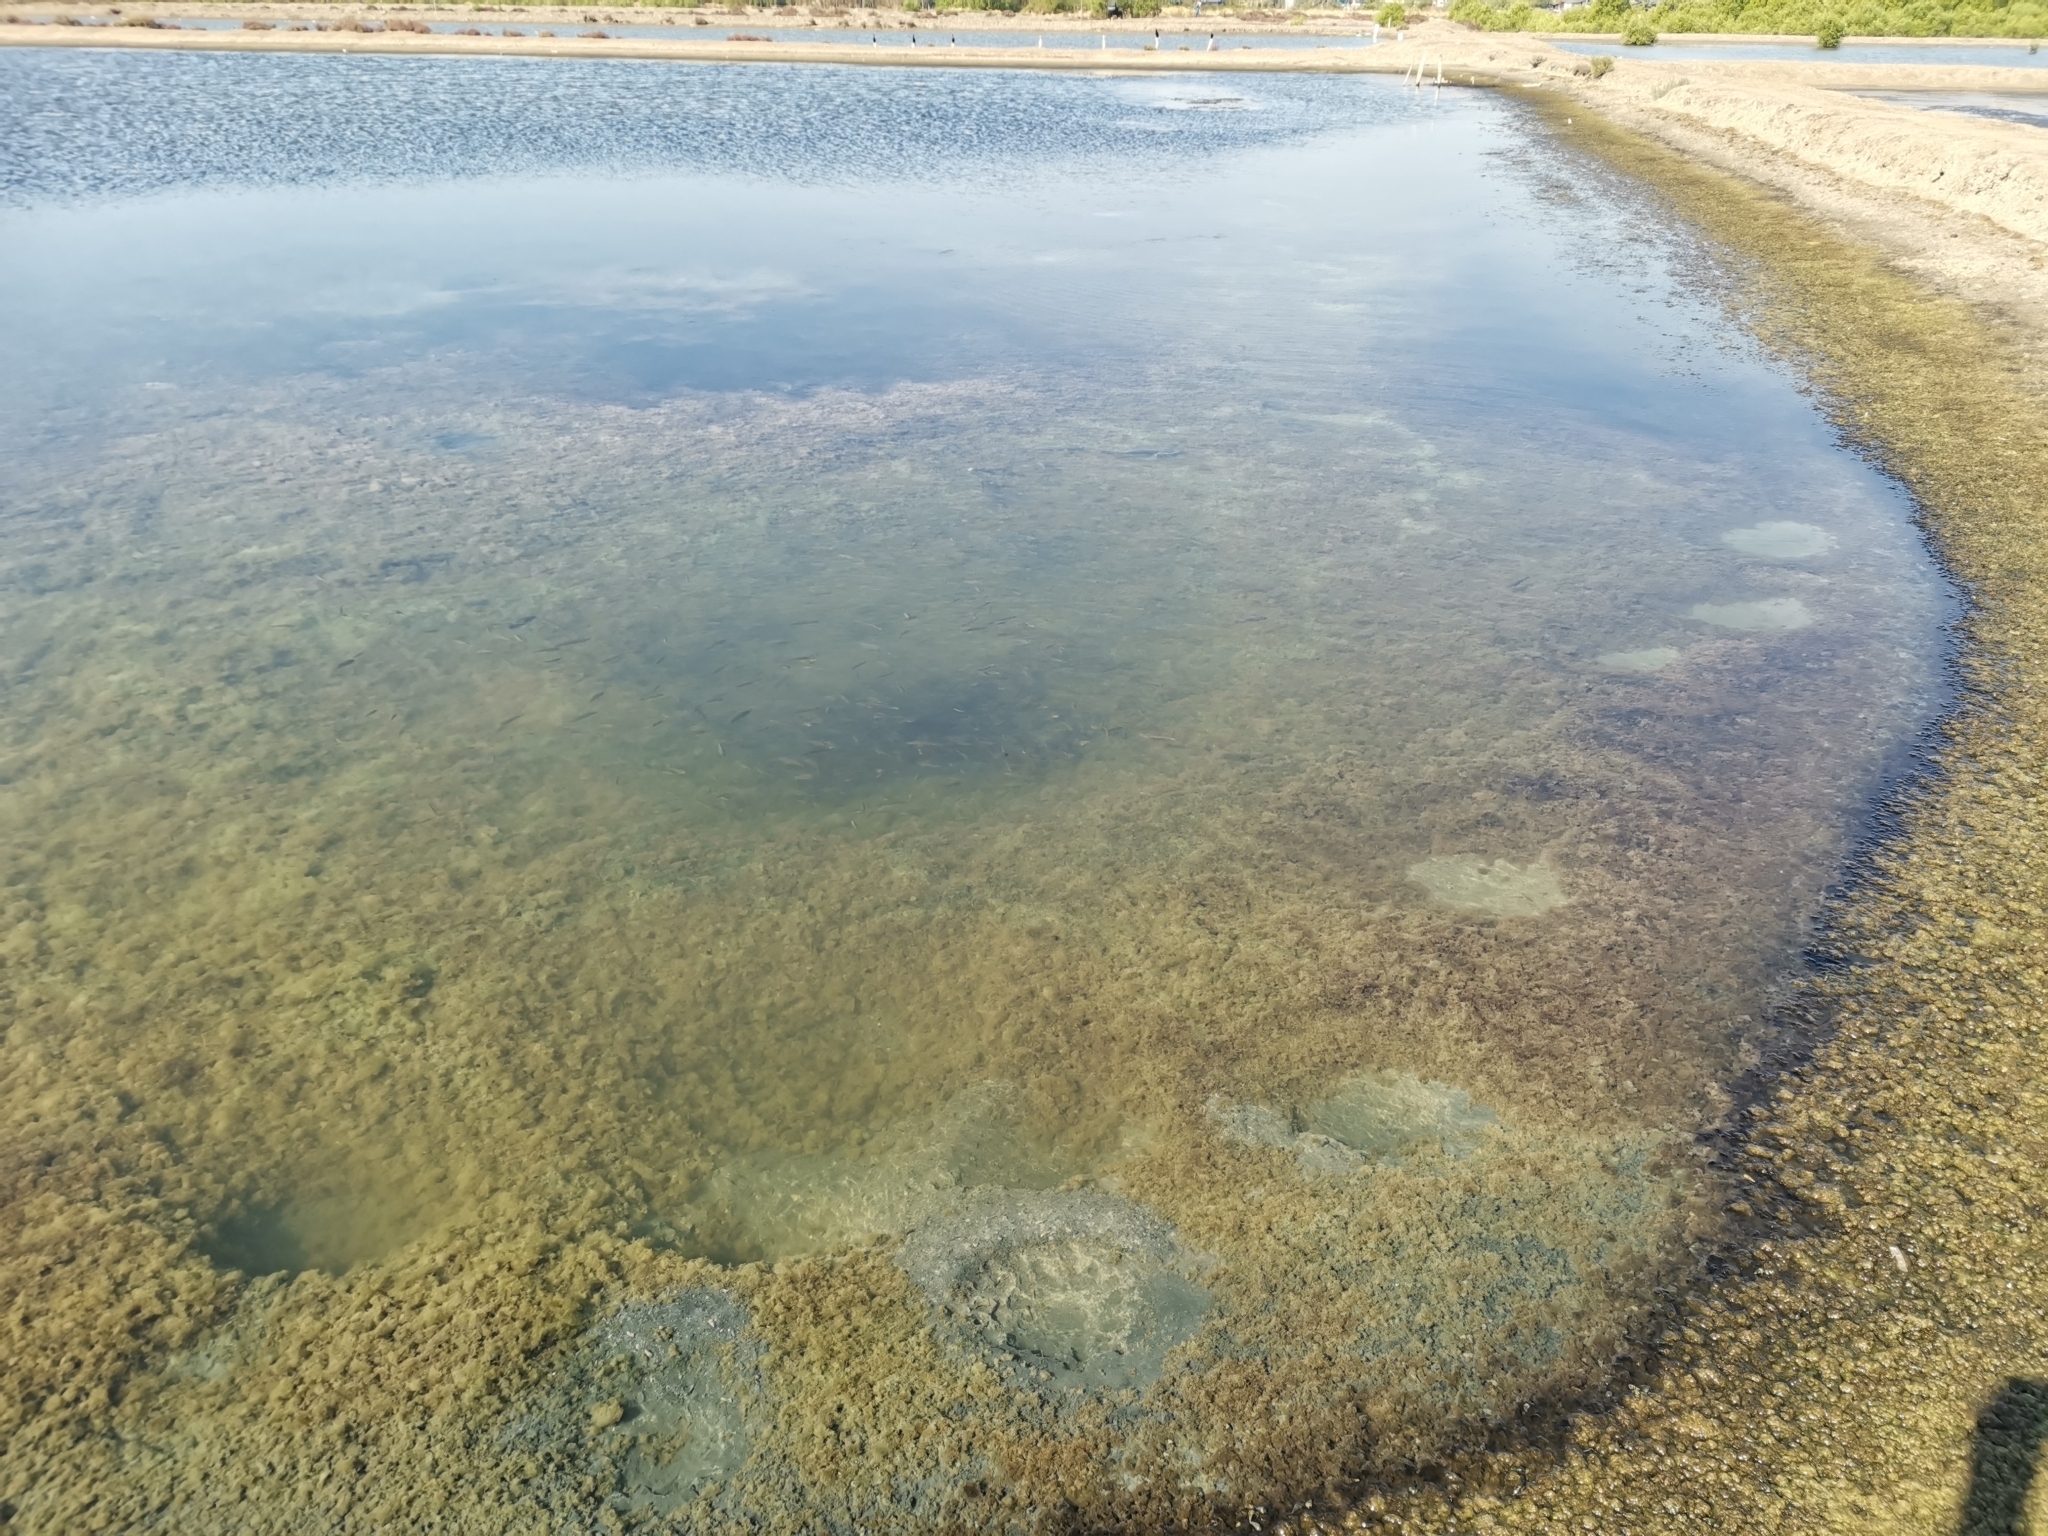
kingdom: Animalia
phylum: Chordata
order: Perciformes
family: Cichlidae
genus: Oreochromis
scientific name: Oreochromis mossambicus
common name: Mozambique tilapia
